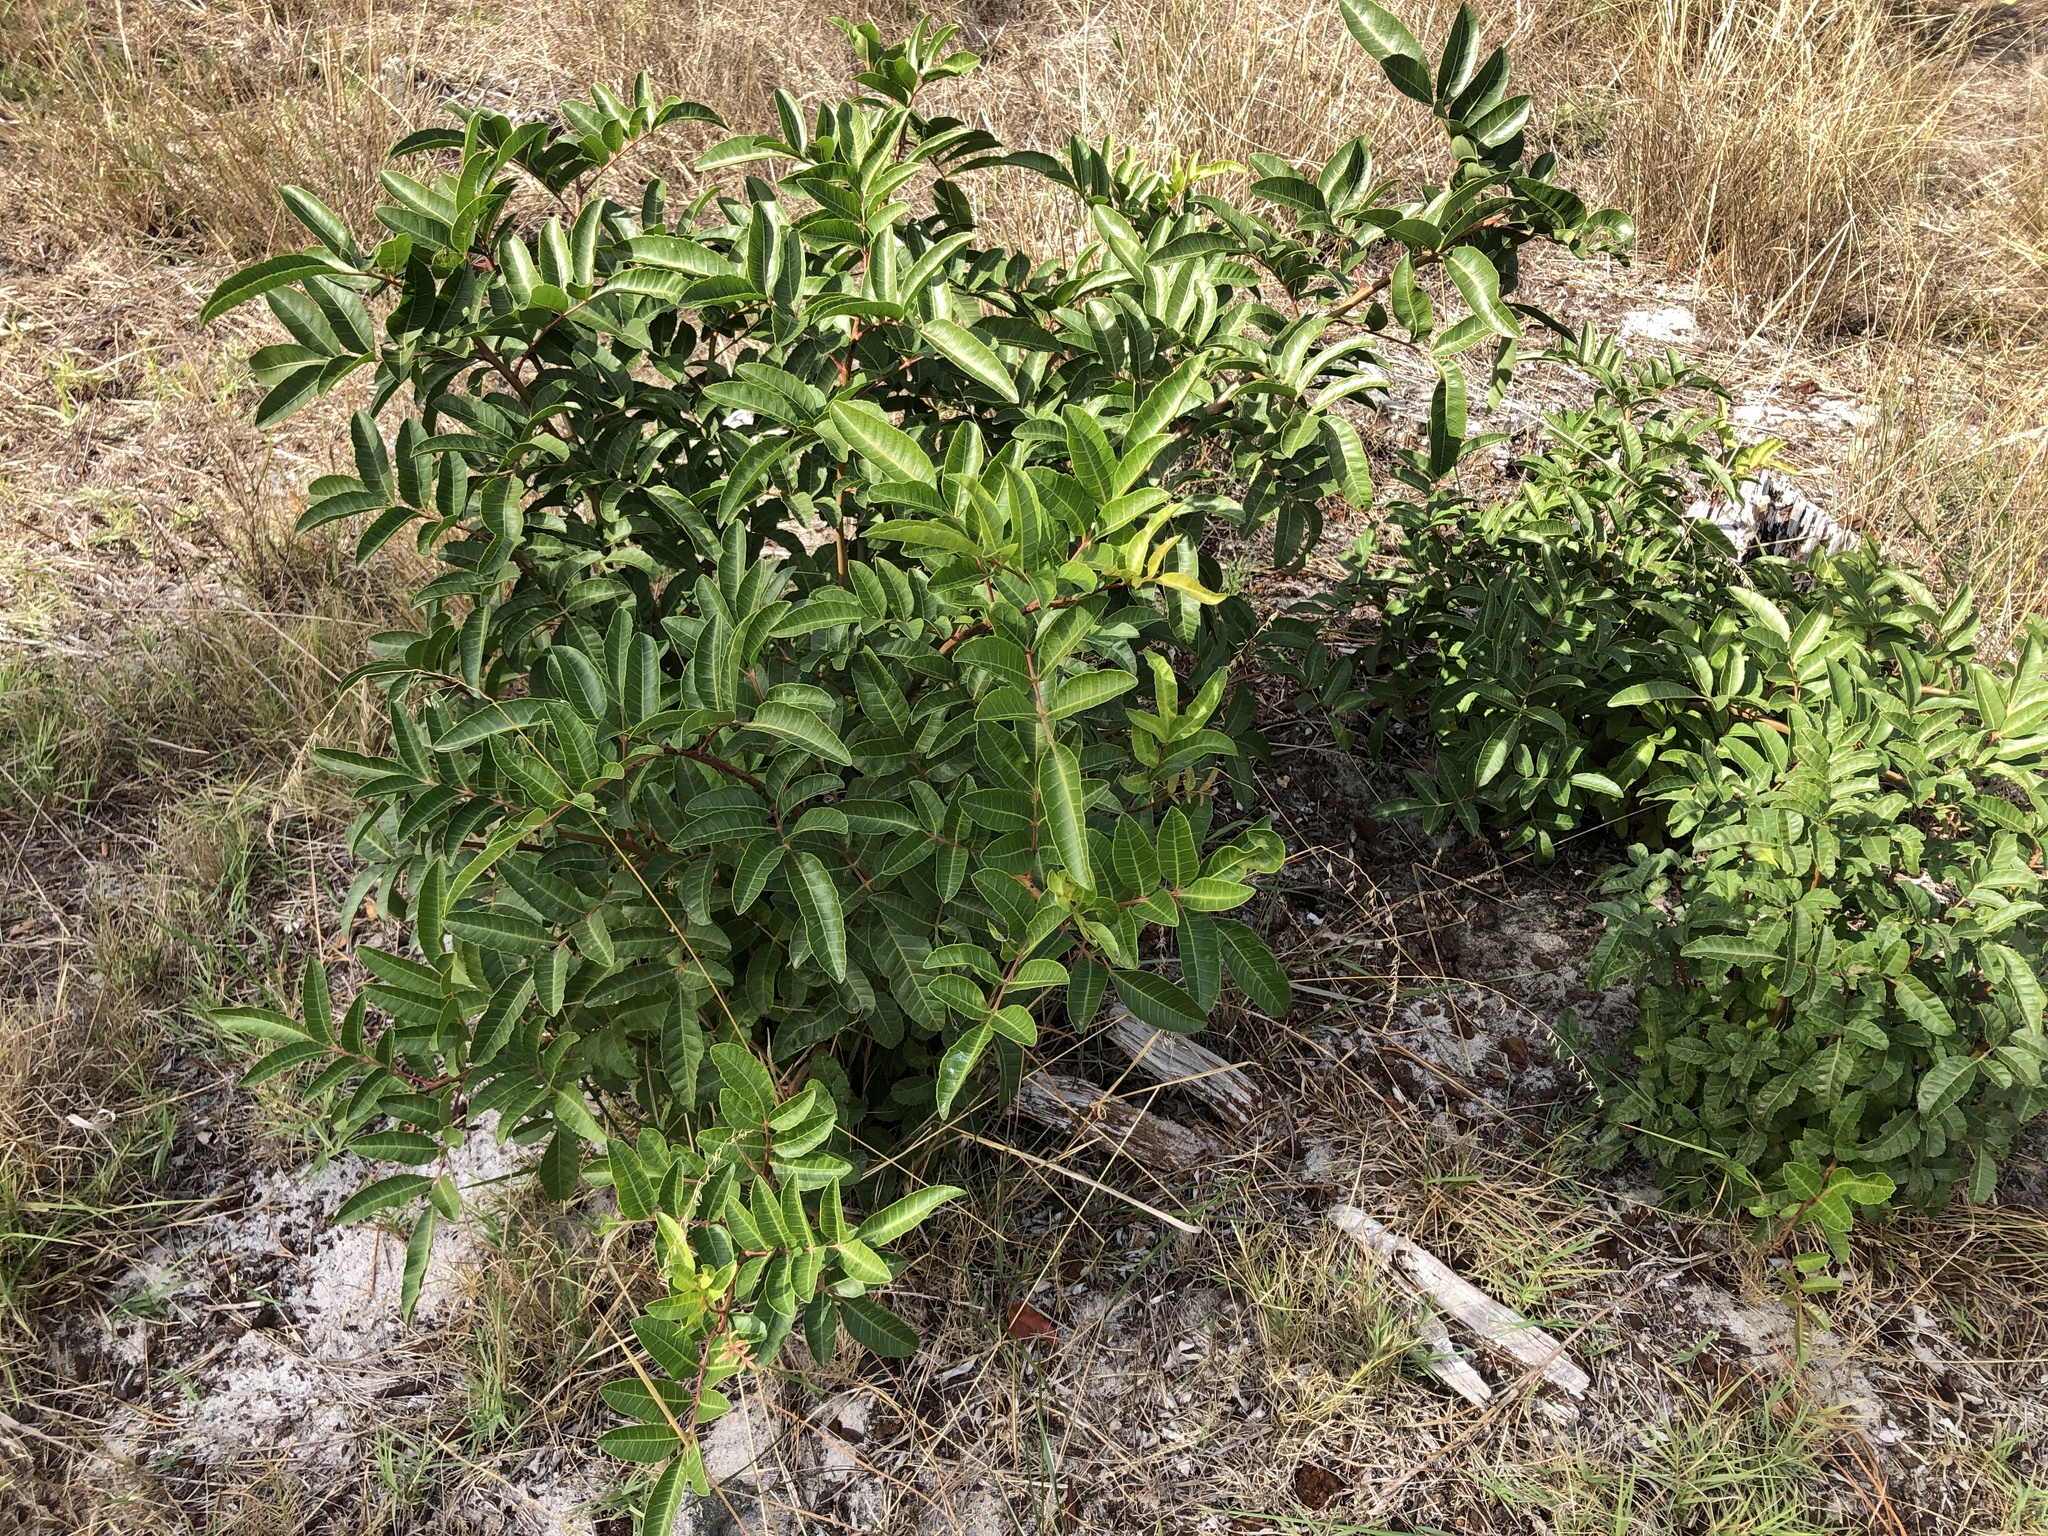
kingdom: Plantae
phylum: Tracheophyta
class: Magnoliopsida
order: Sapindales
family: Anacardiaceae
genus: Schinus
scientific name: Schinus terebinthifolia
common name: Brazilian peppertree
